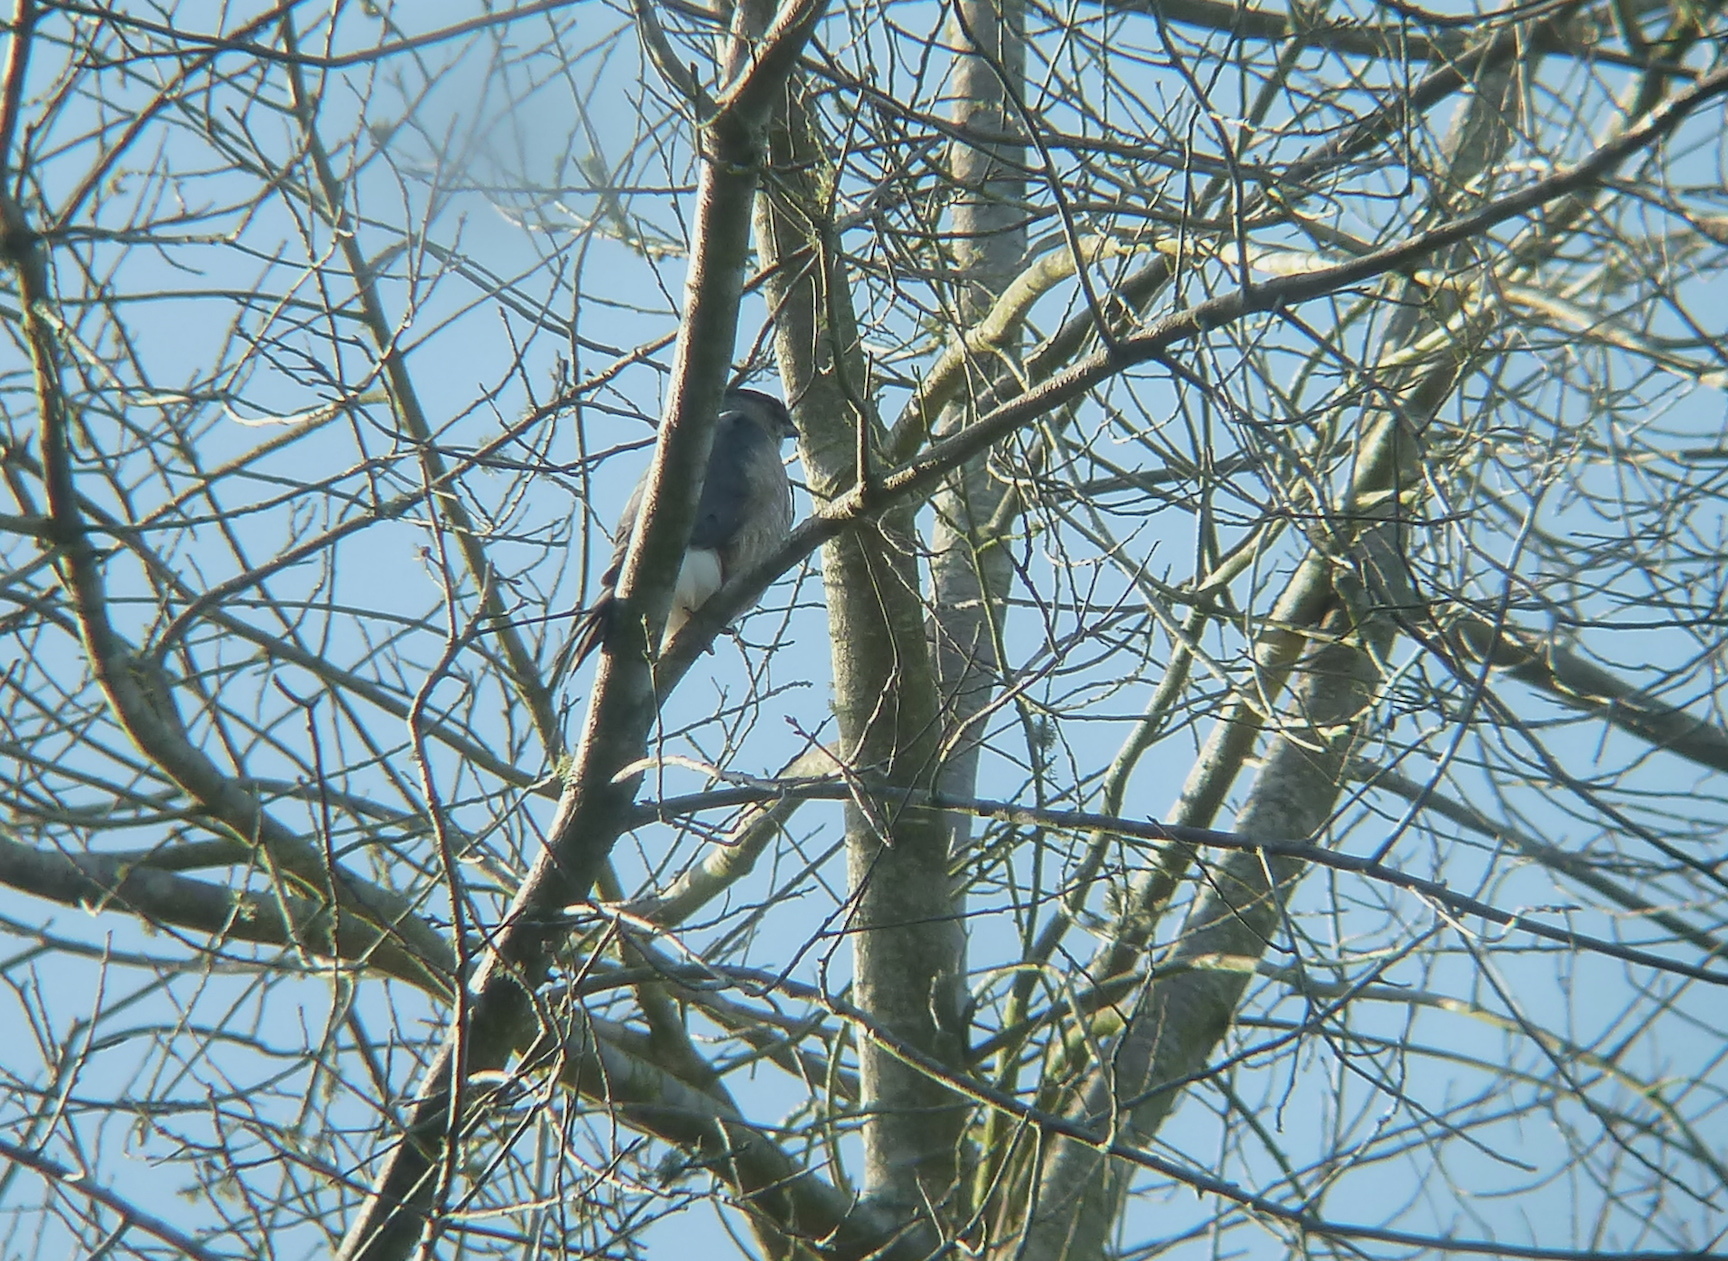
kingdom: Animalia
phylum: Chordata
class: Aves
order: Accipitriformes
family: Accipitridae
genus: Accipiter
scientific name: Accipiter cooperii
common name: Cooper's hawk
